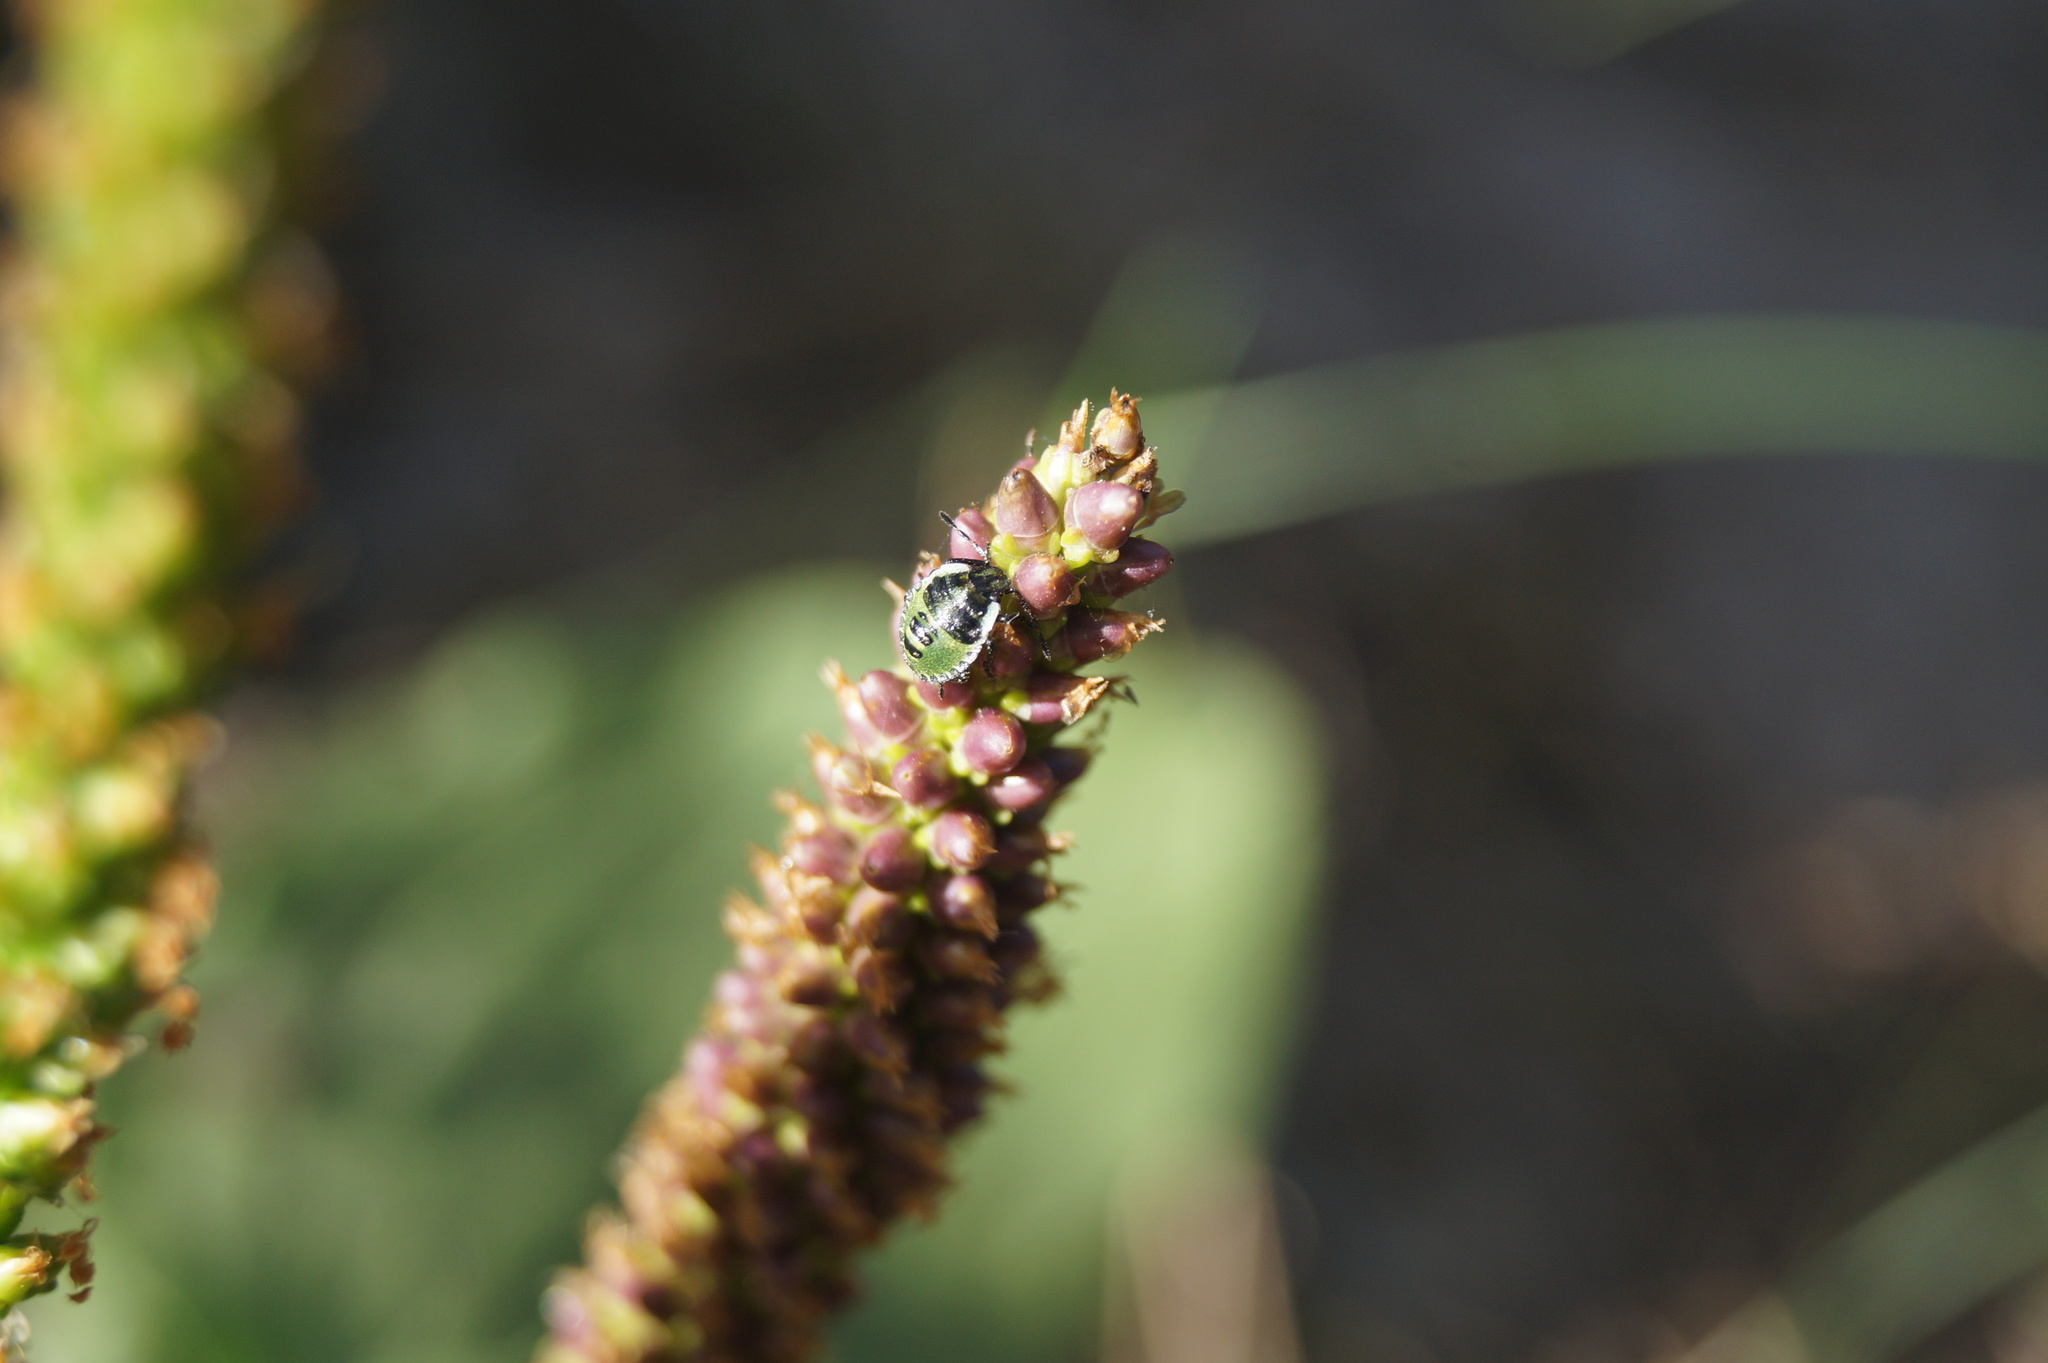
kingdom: Animalia
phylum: Arthropoda
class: Insecta
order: Hemiptera
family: Pentatomidae
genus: Palomena
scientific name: Palomena prasina
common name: Green shieldbug
